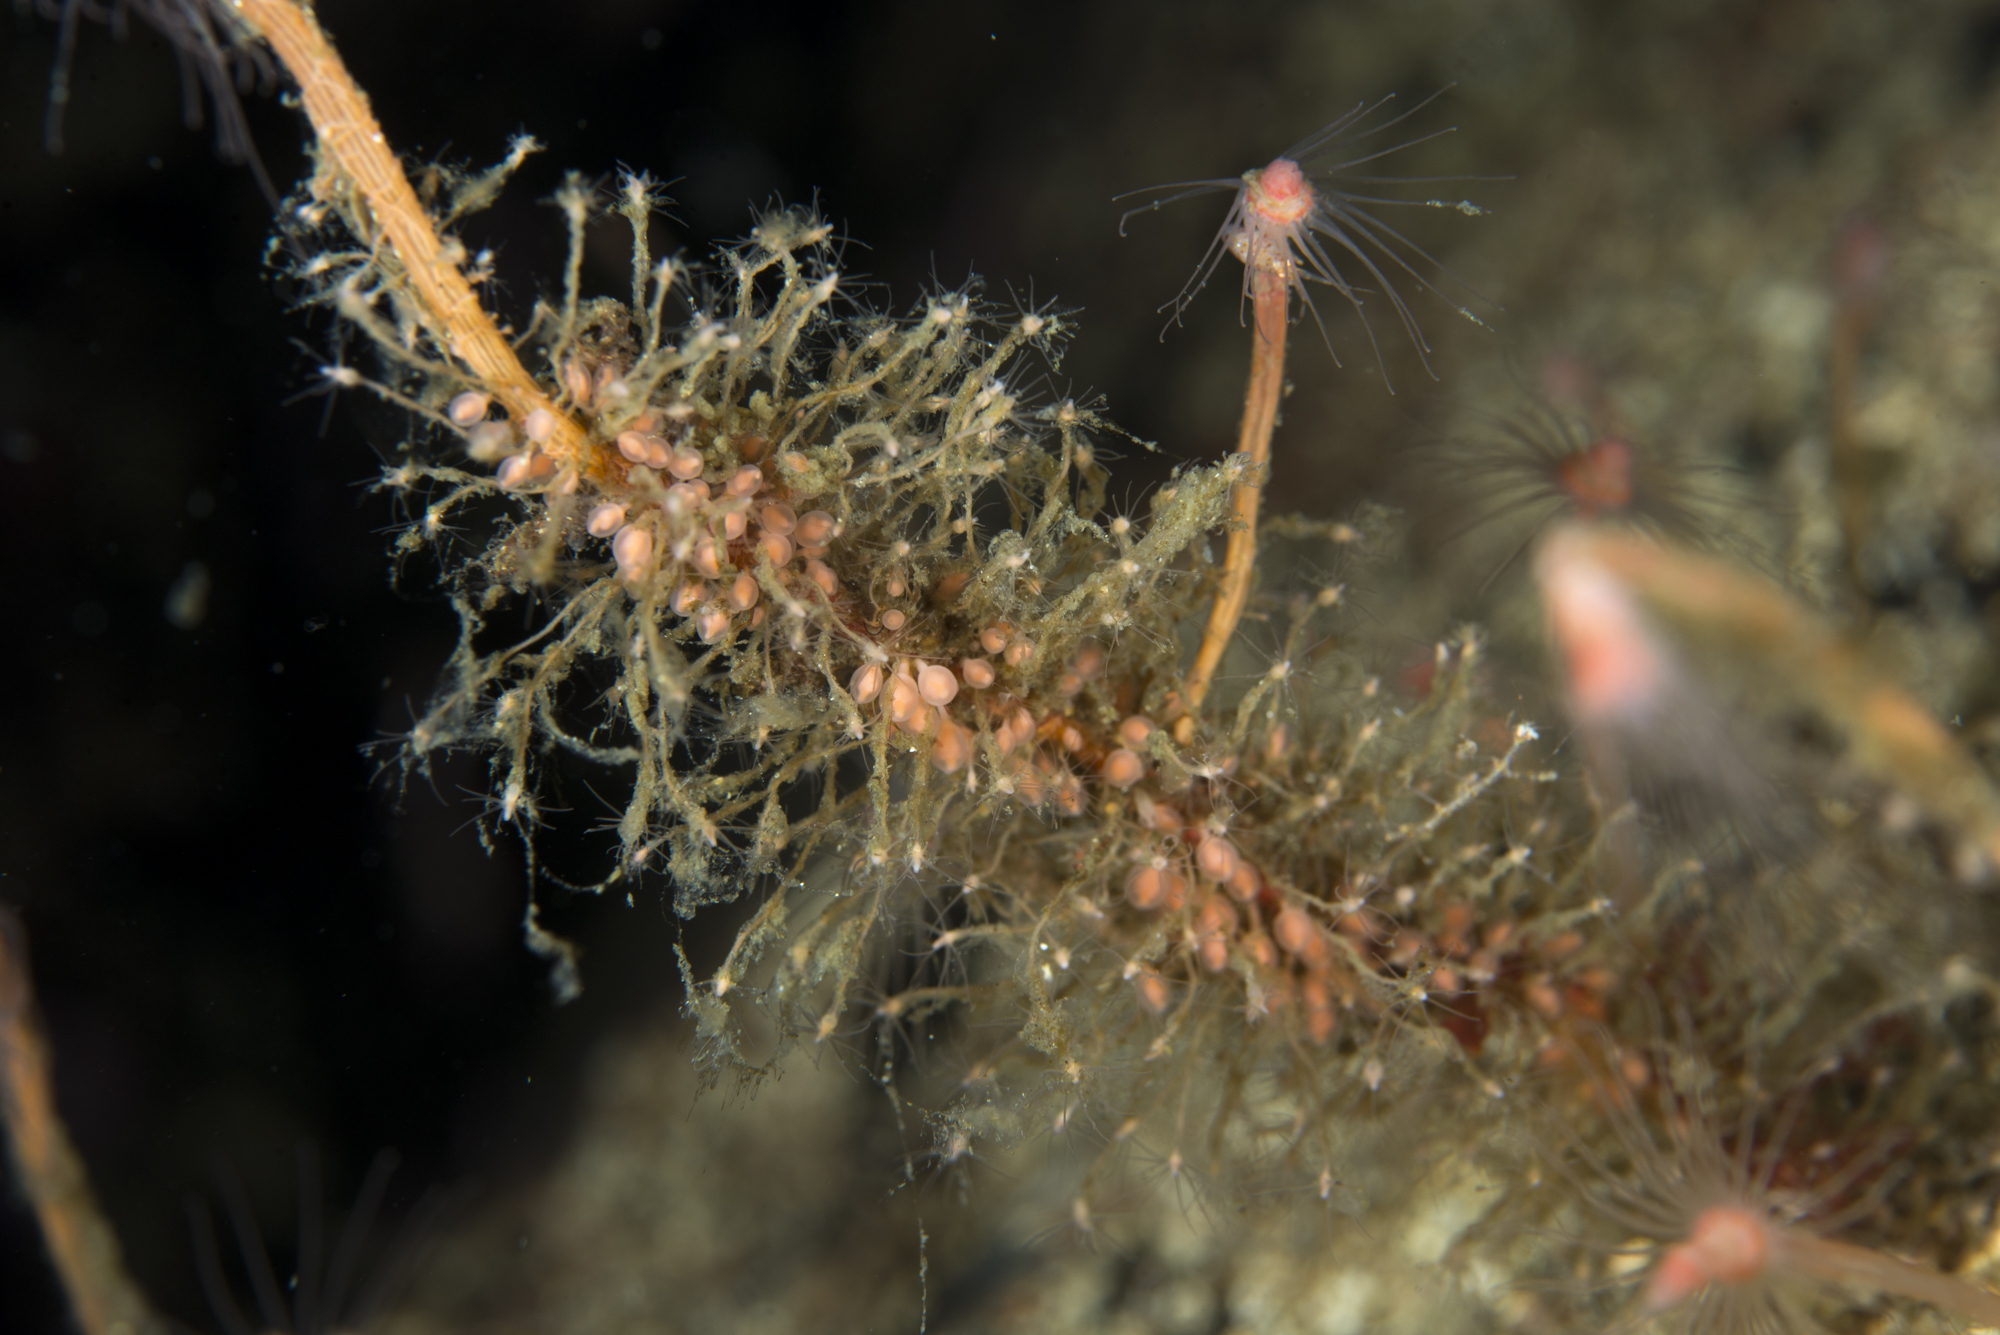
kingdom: Animalia
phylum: Cnidaria
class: Hydrozoa
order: Anthoathecata
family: Bougainvilliidae
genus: Rhizorhagium
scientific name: Rhizorhagium roseum
